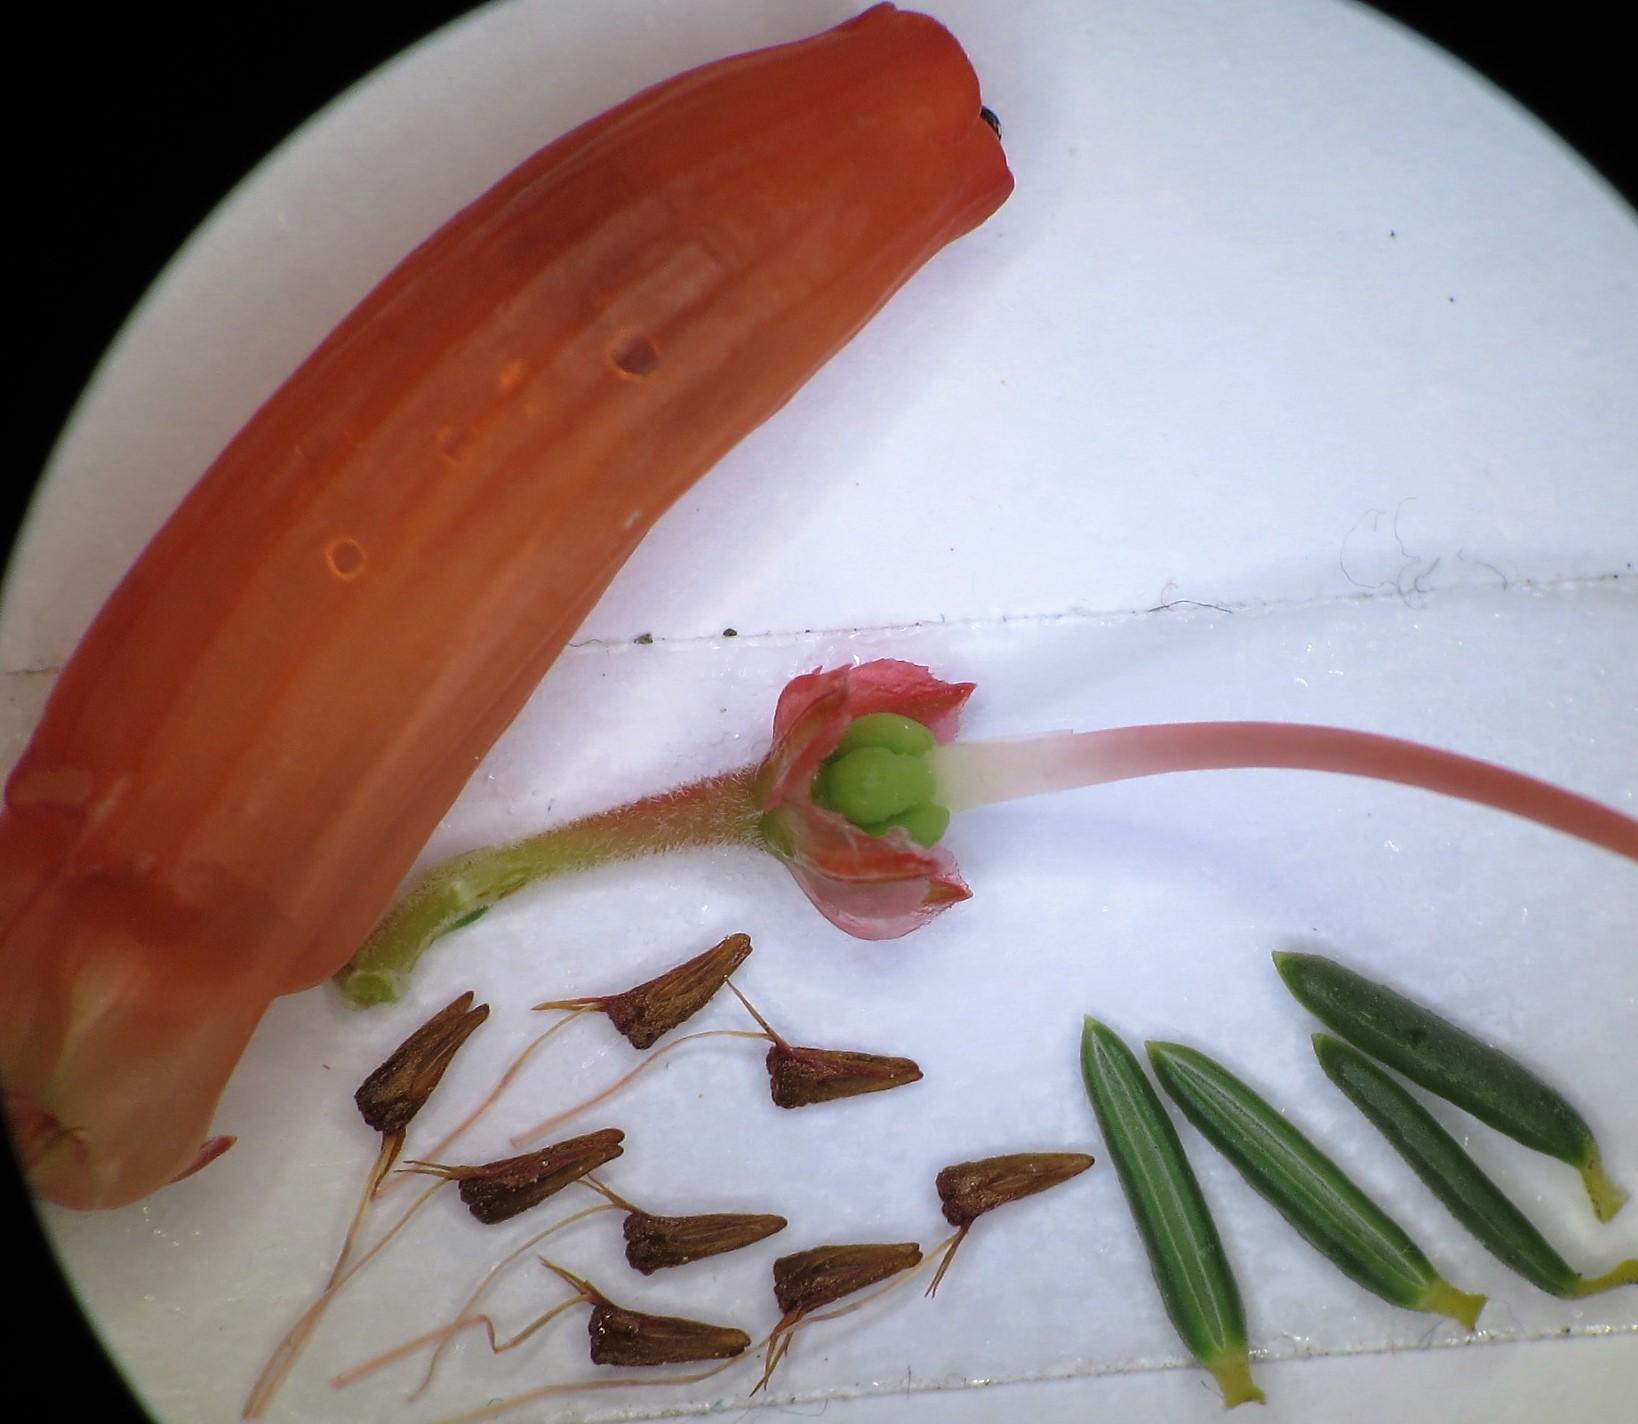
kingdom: Plantae
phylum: Tracheophyta
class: Magnoliopsida
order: Ericales
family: Ericaceae
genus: Erica
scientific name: Erica mammosa
